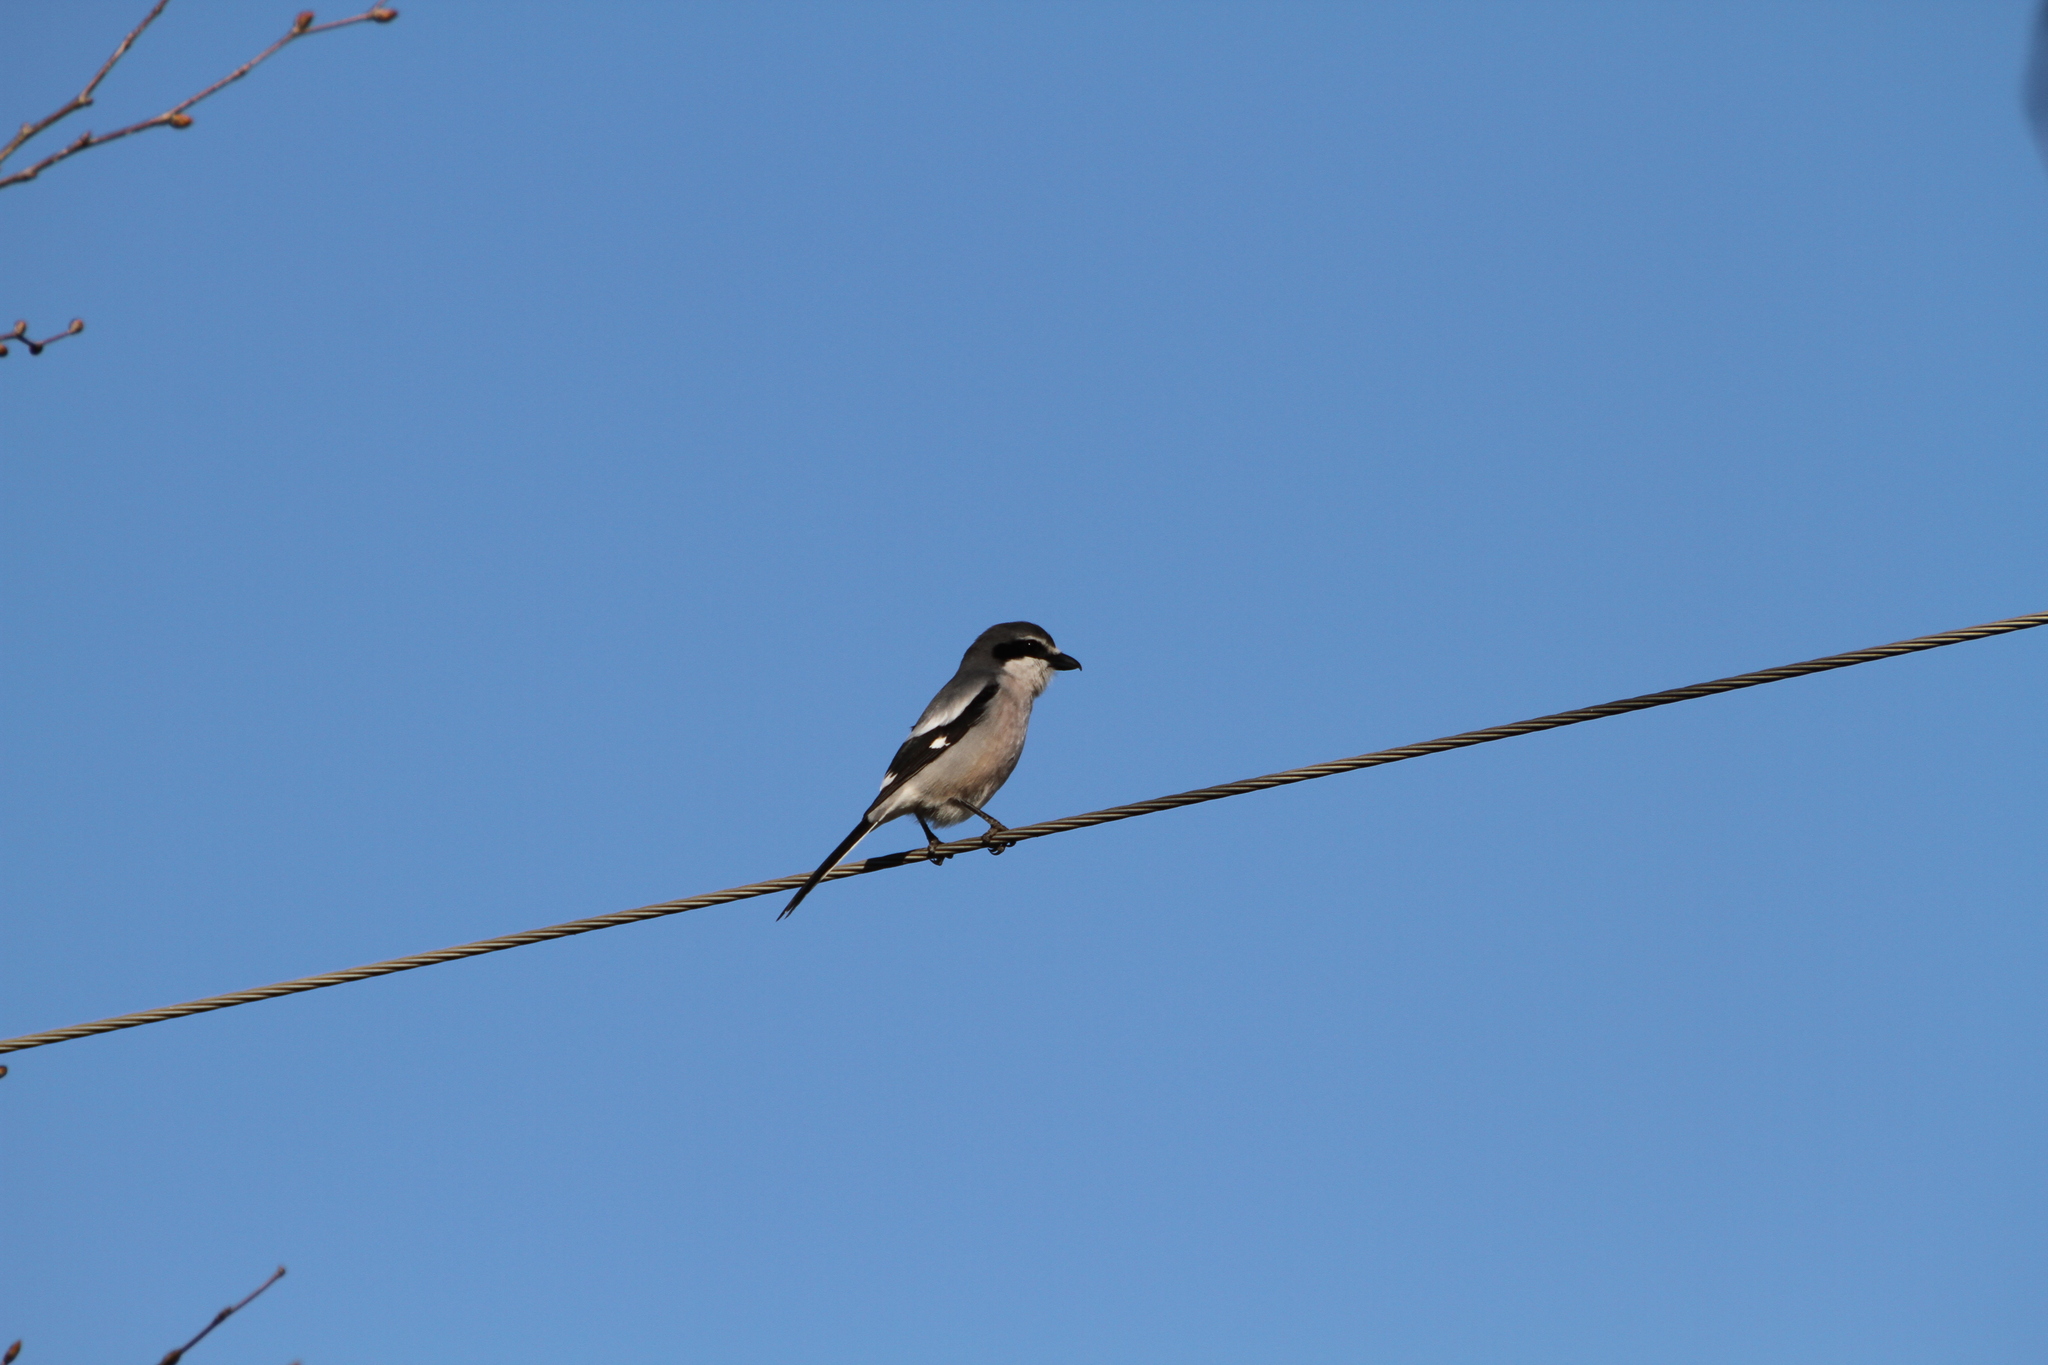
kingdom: Animalia
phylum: Chordata
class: Aves
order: Passeriformes
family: Laniidae
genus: Lanius
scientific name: Lanius meridionalis
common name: Iberian grey shrike
